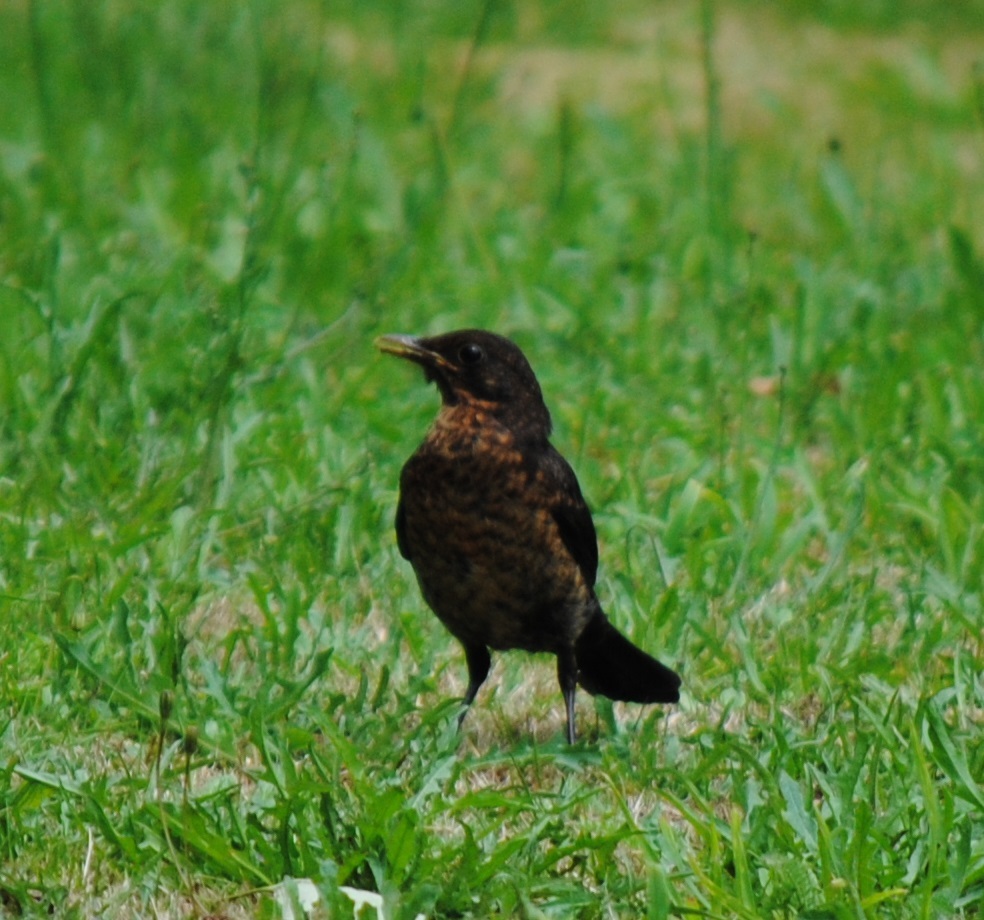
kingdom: Animalia
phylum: Chordata
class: Aves
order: Passeriformes
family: Turdidae
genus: Turdus
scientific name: Turdus merula
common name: Common blackbird
